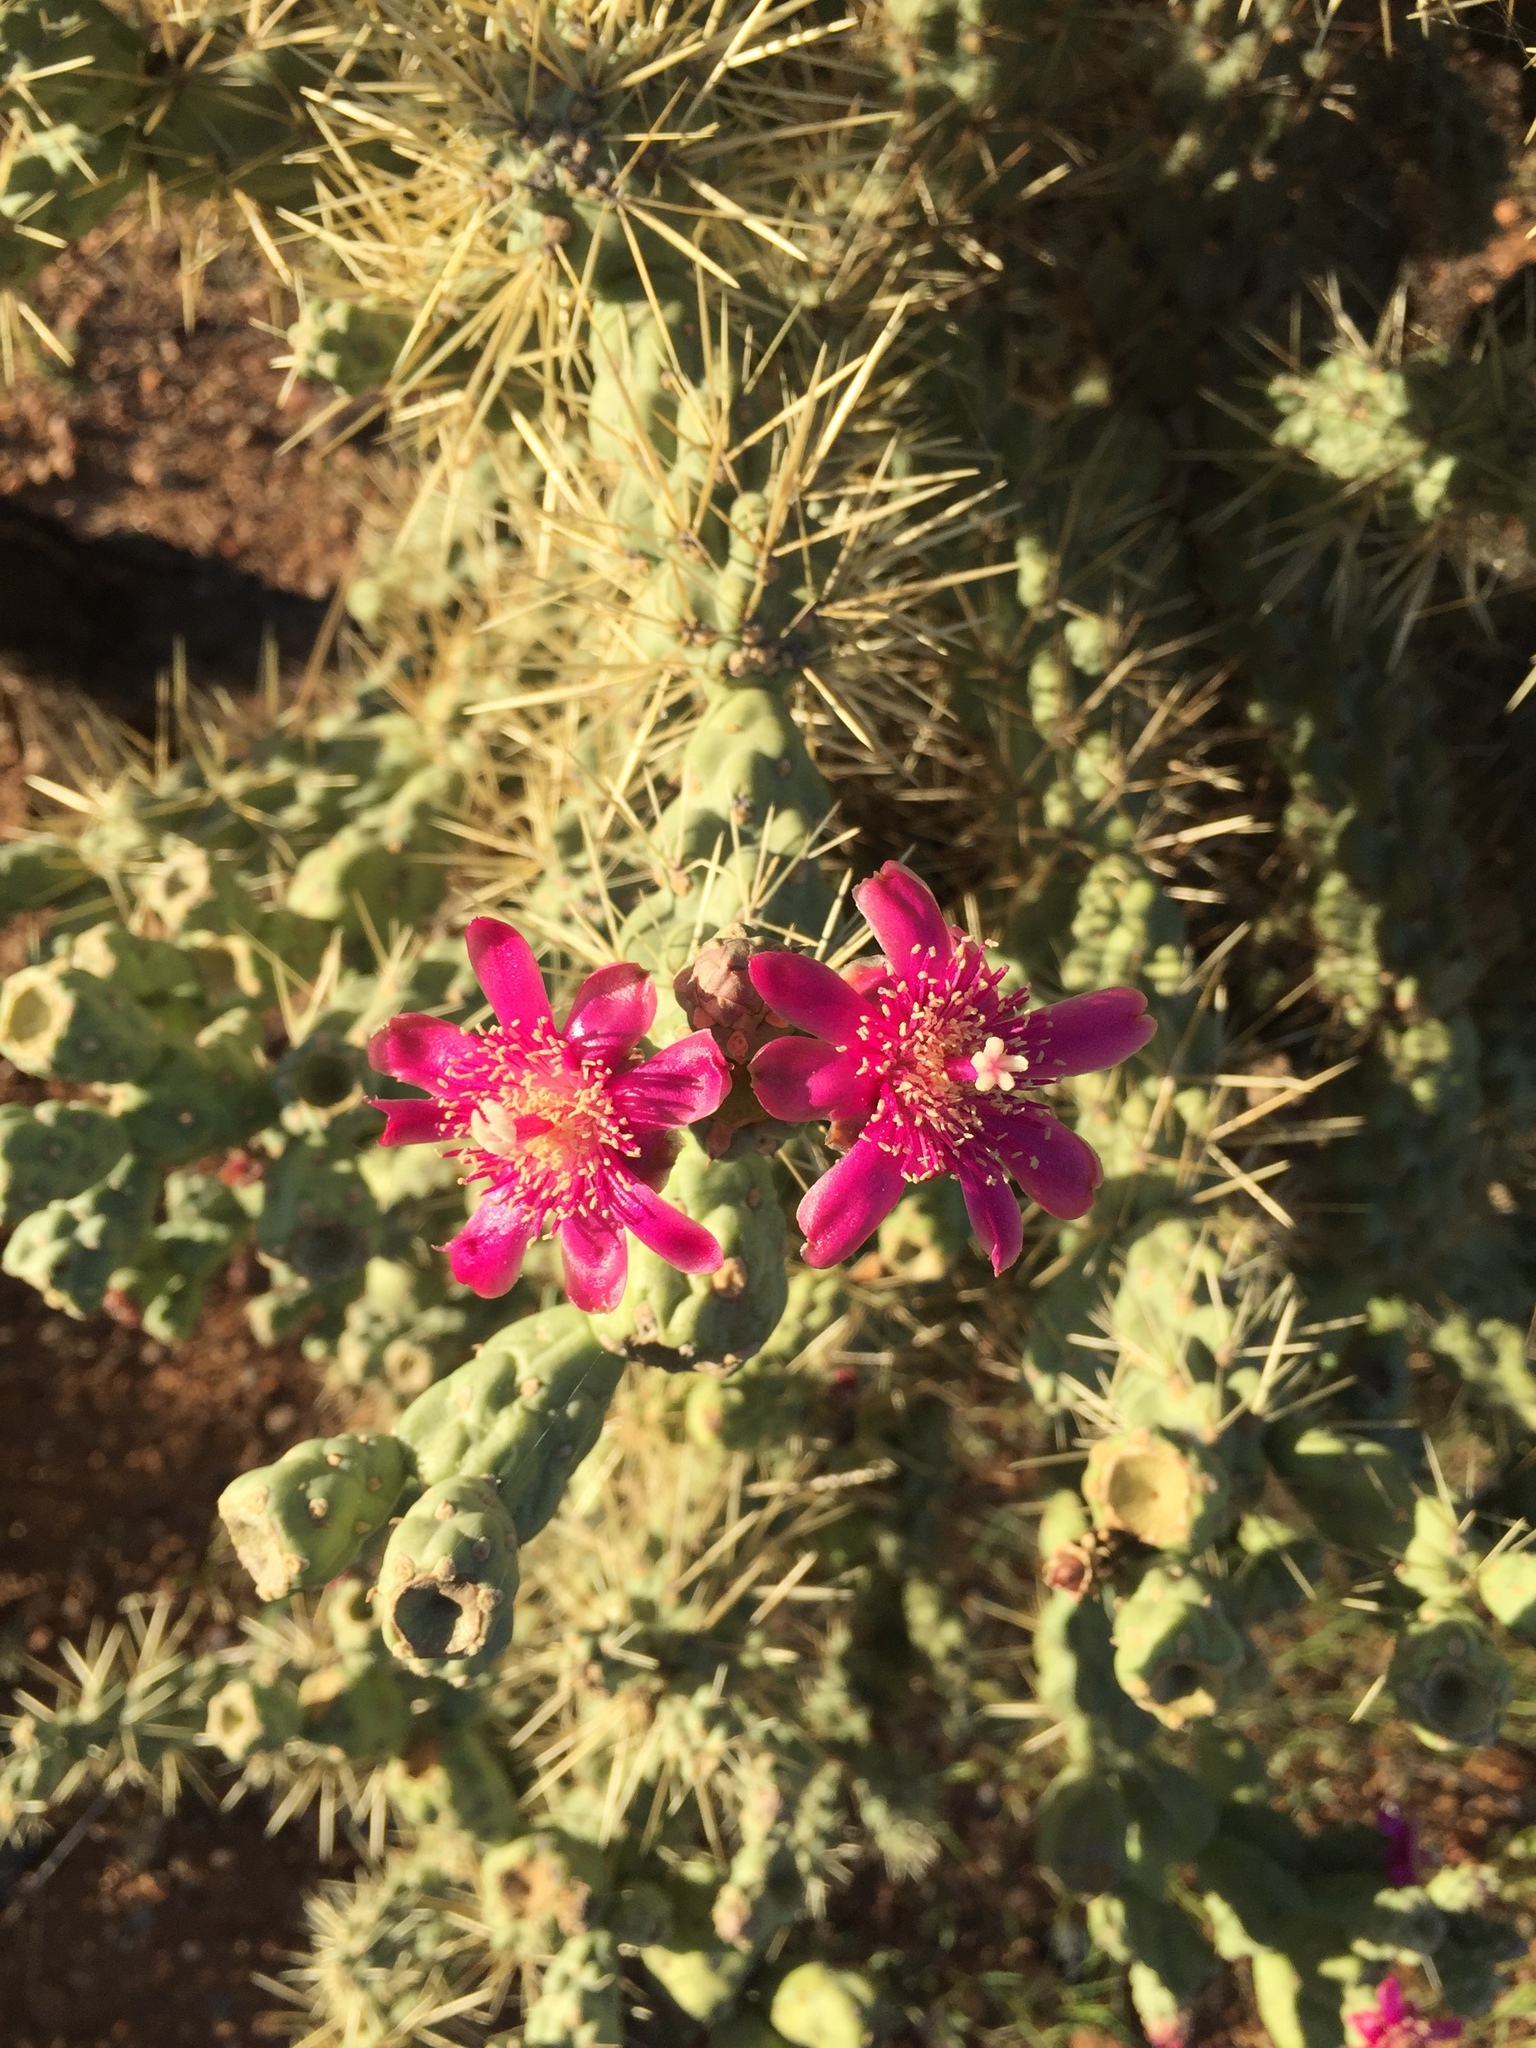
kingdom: Plantae
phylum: Tracheophyta
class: Magnoliopsida
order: Caryophyllales
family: Cactaceae
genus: Cylindropuntia
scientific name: Cylindropuntia fulgida
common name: Jumping cholla
